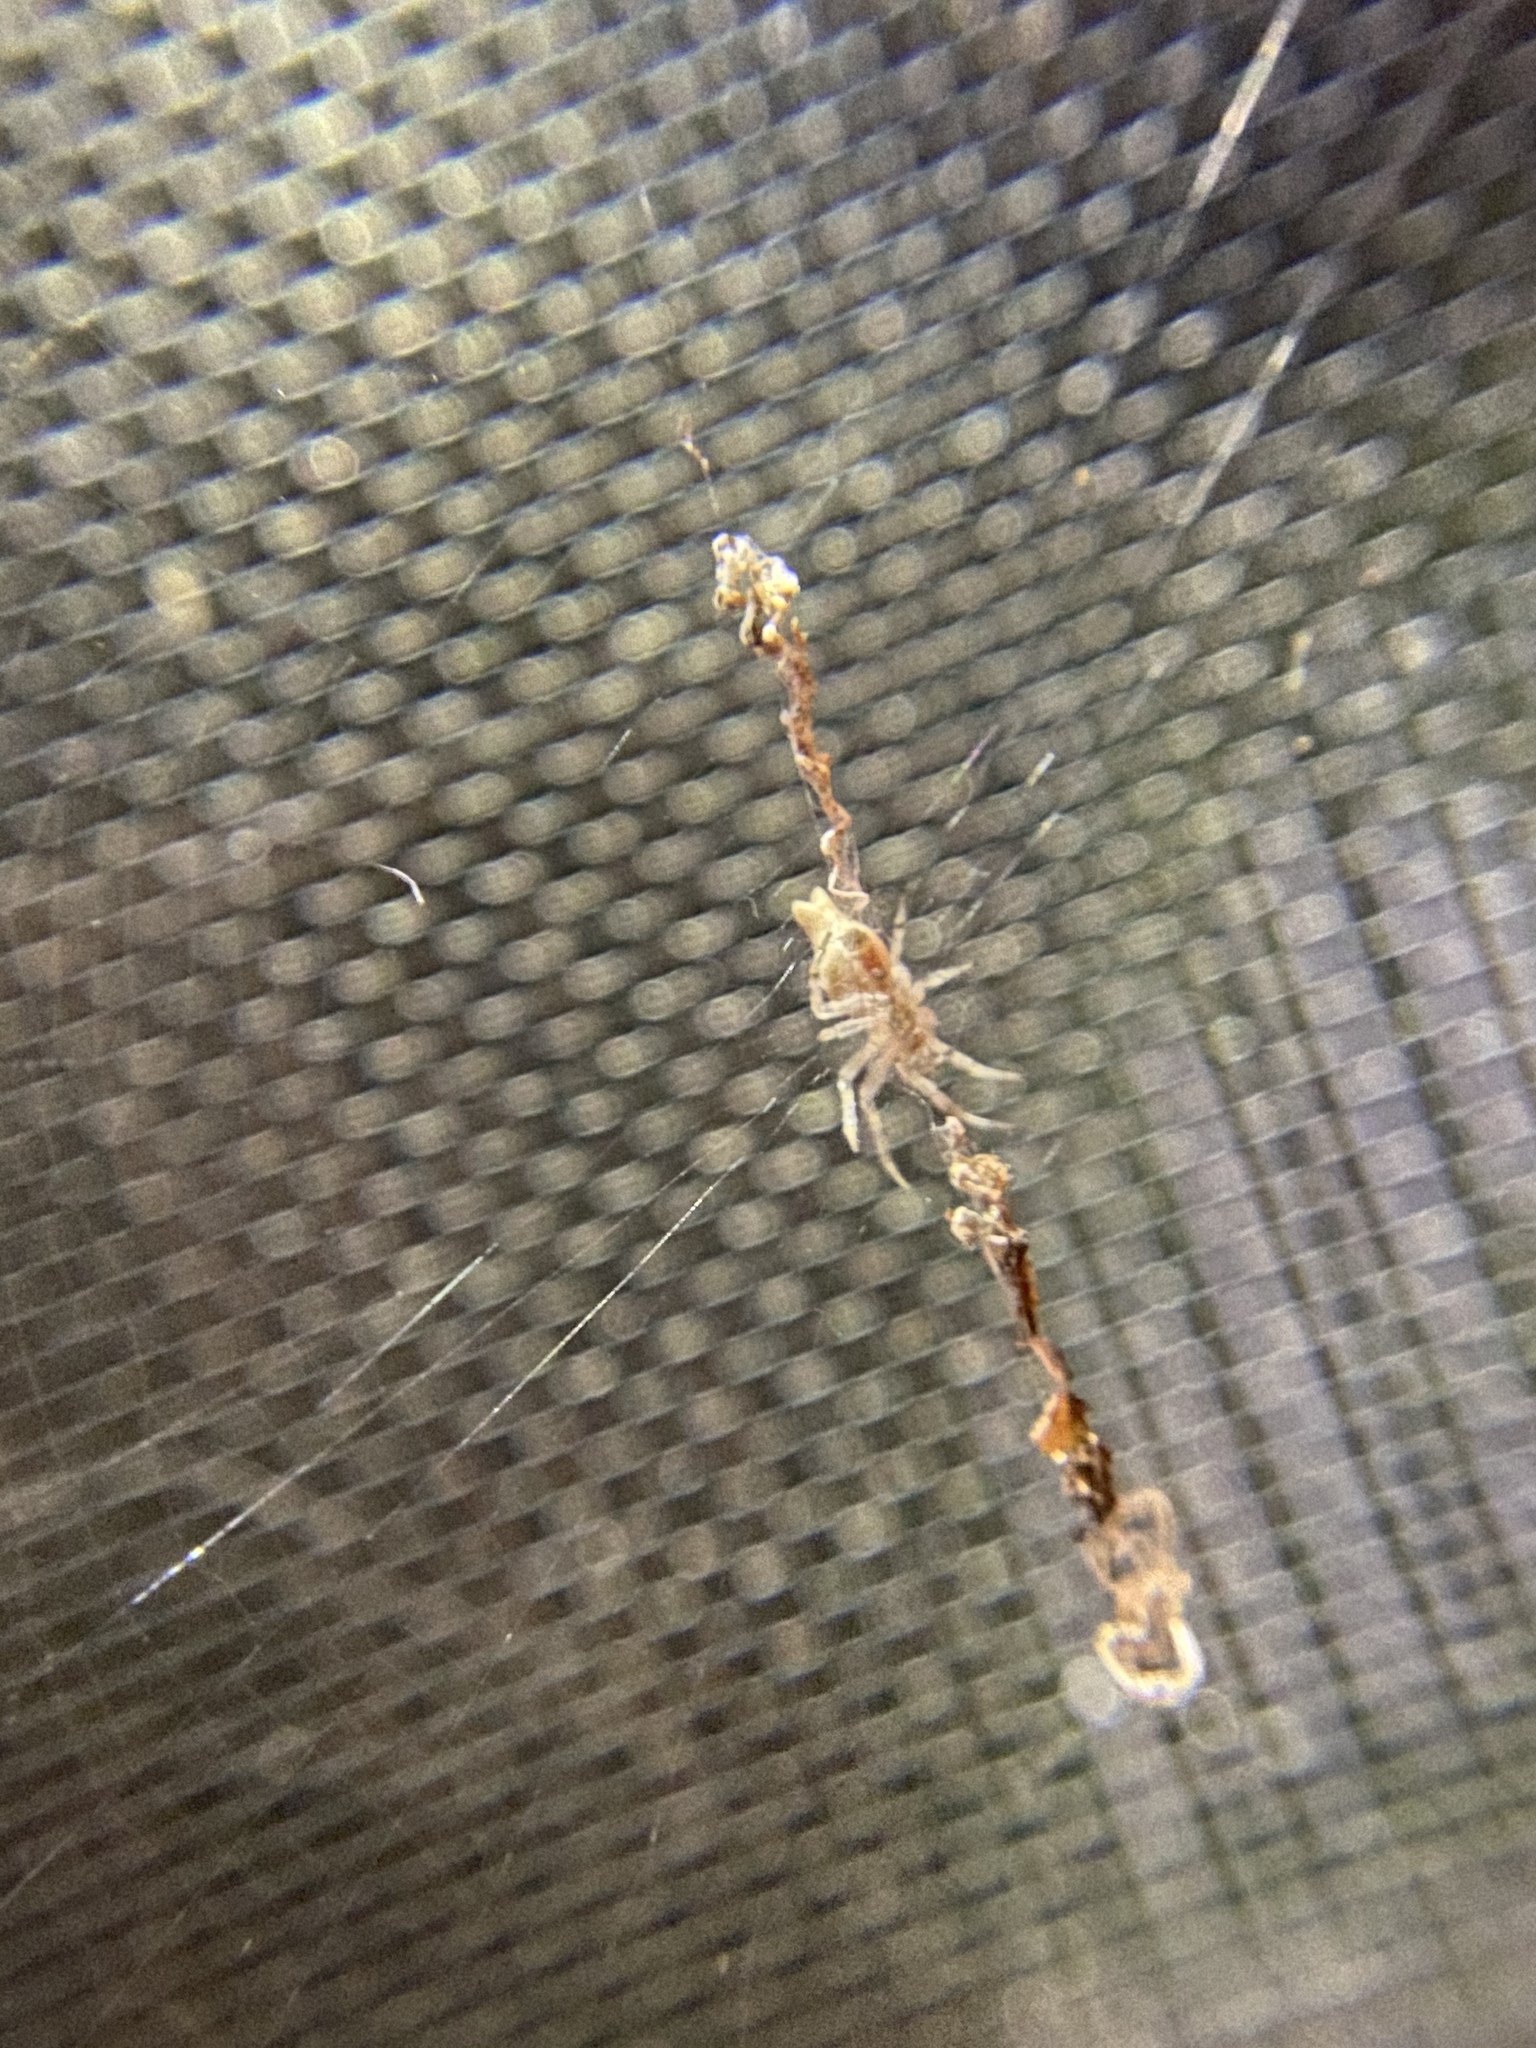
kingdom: Animalia
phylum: Arthropoda
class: Arachnida
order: Araneae
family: Araneidae
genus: Allocyclosa
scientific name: Allocyclosa bifurca
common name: Orb weavers
